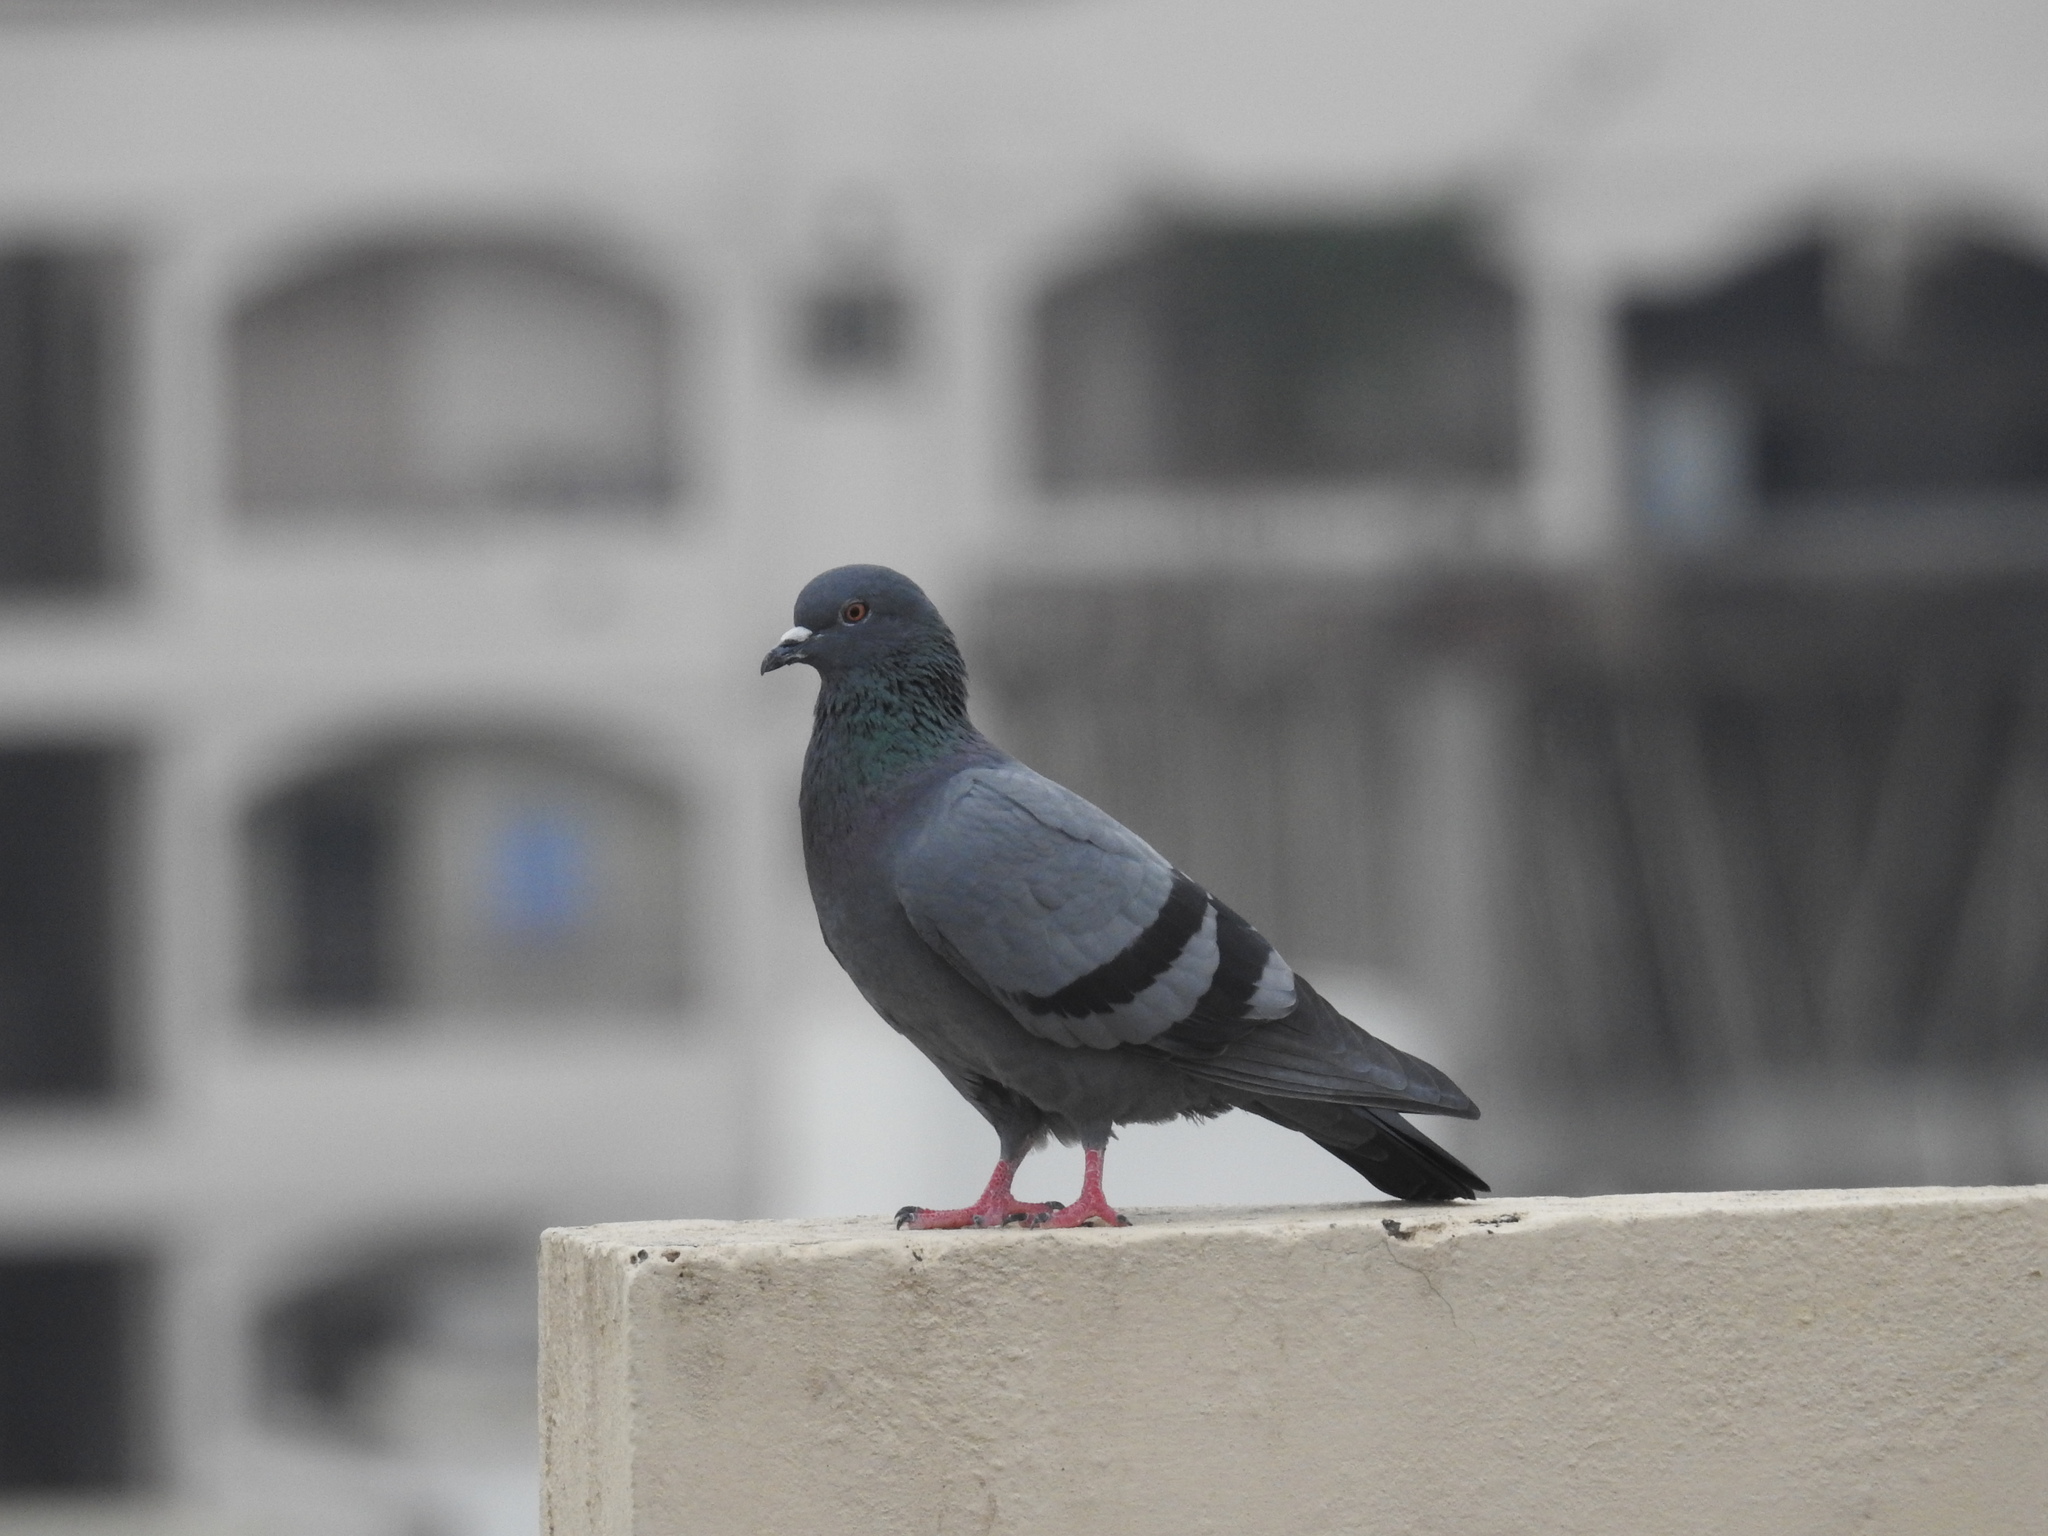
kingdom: Animalia
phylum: Chordata
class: Aves
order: Columbiformes
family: Columbidae
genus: Columba
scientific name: Columba livia
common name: Rock pigeon
